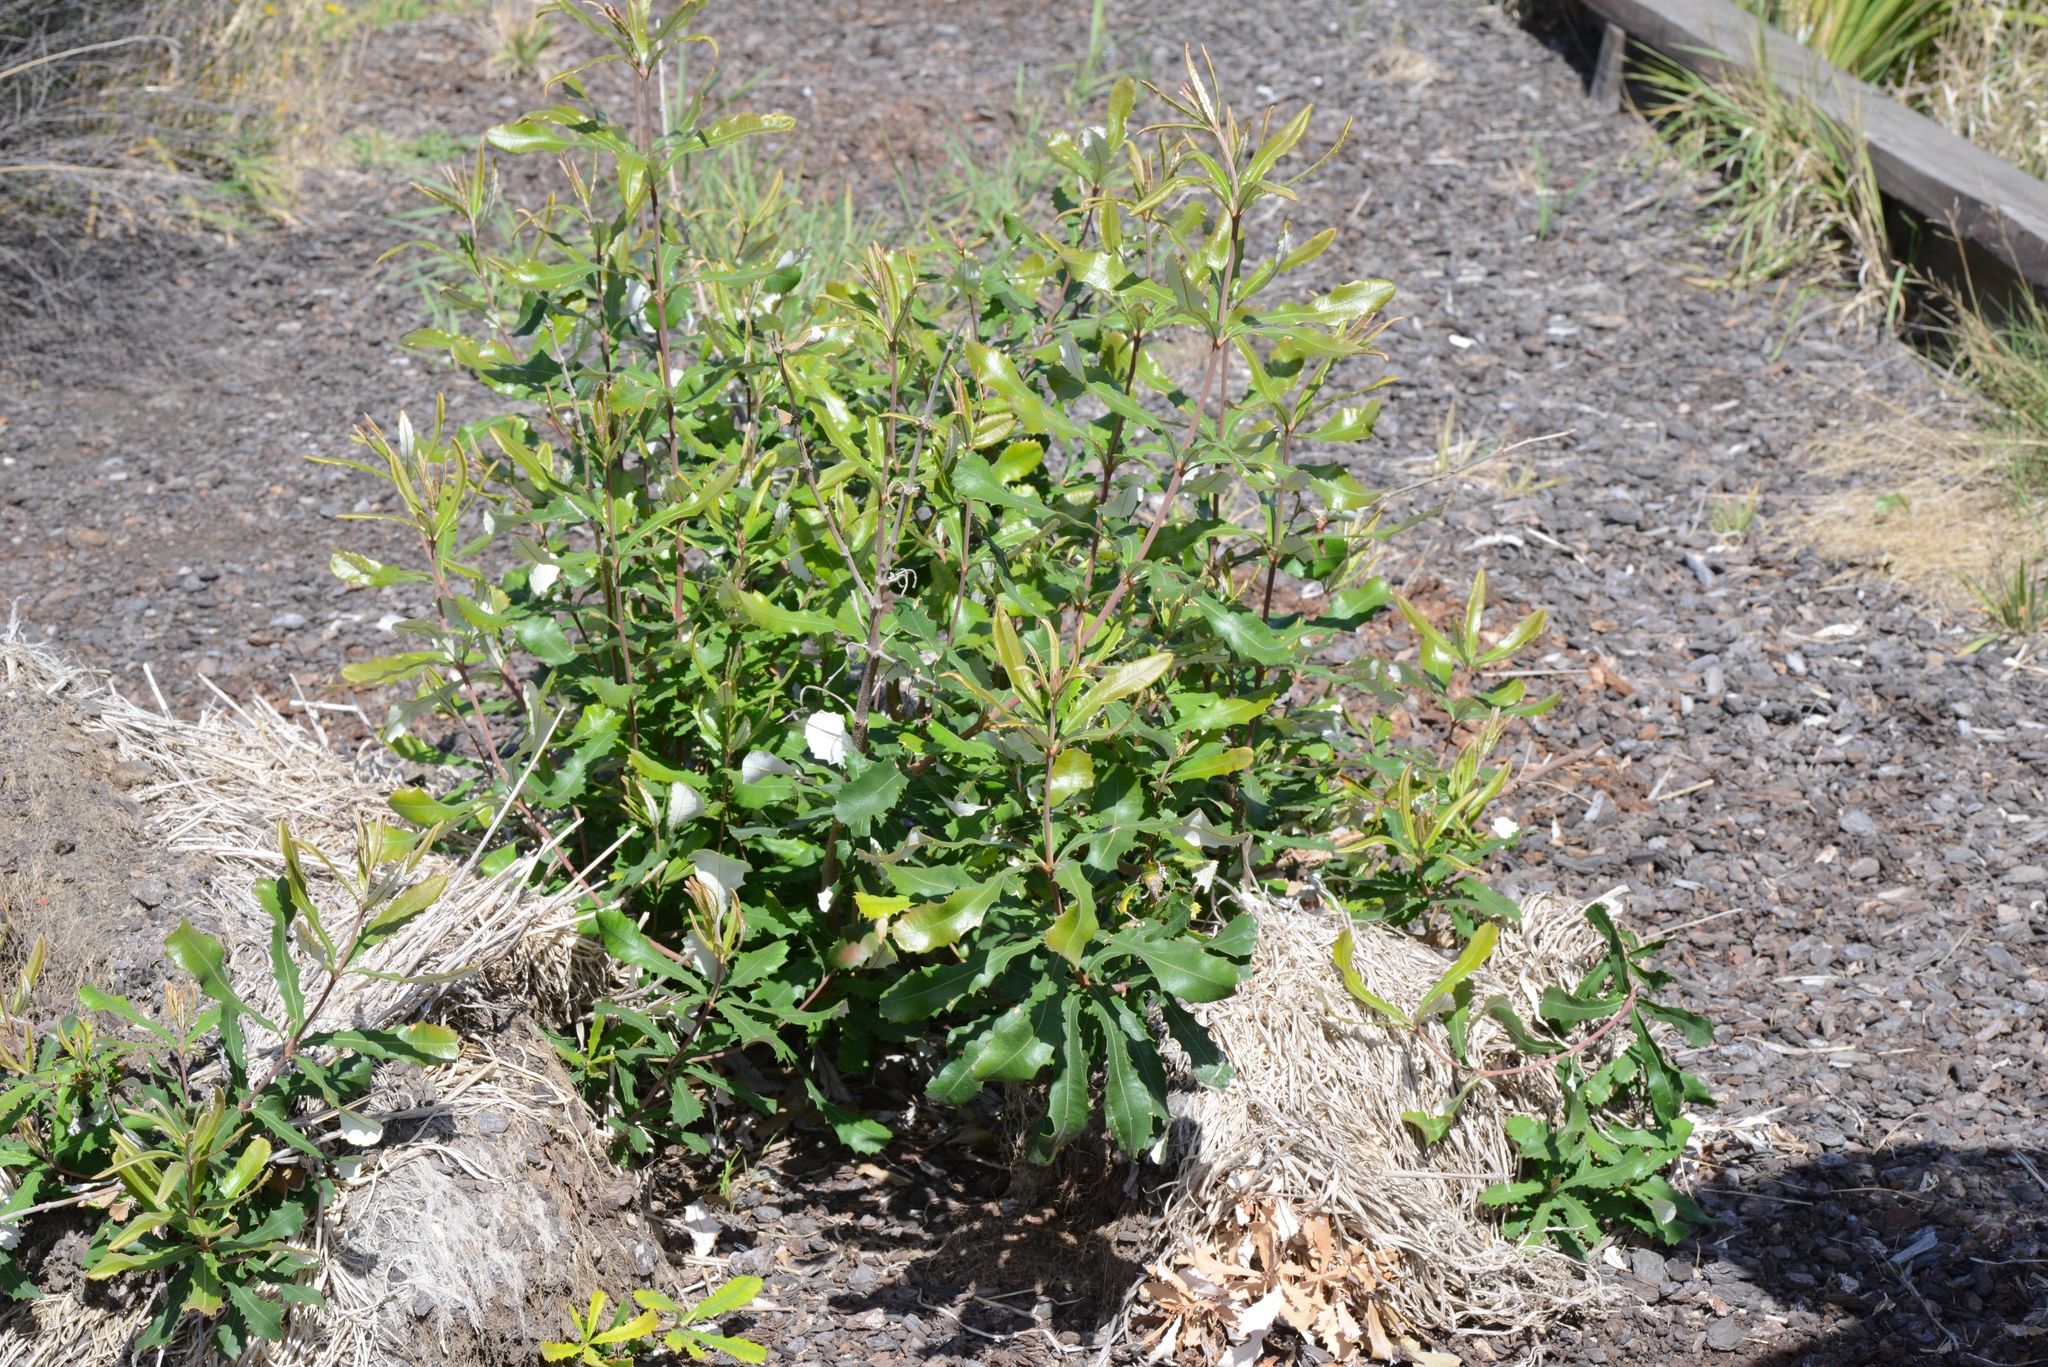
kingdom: Plantae
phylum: Tracheophyta
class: Magnoliopsida
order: Proteales
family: Proteaceae
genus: Banksia
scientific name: Banksia integrifolia
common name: White-honeysuckle
